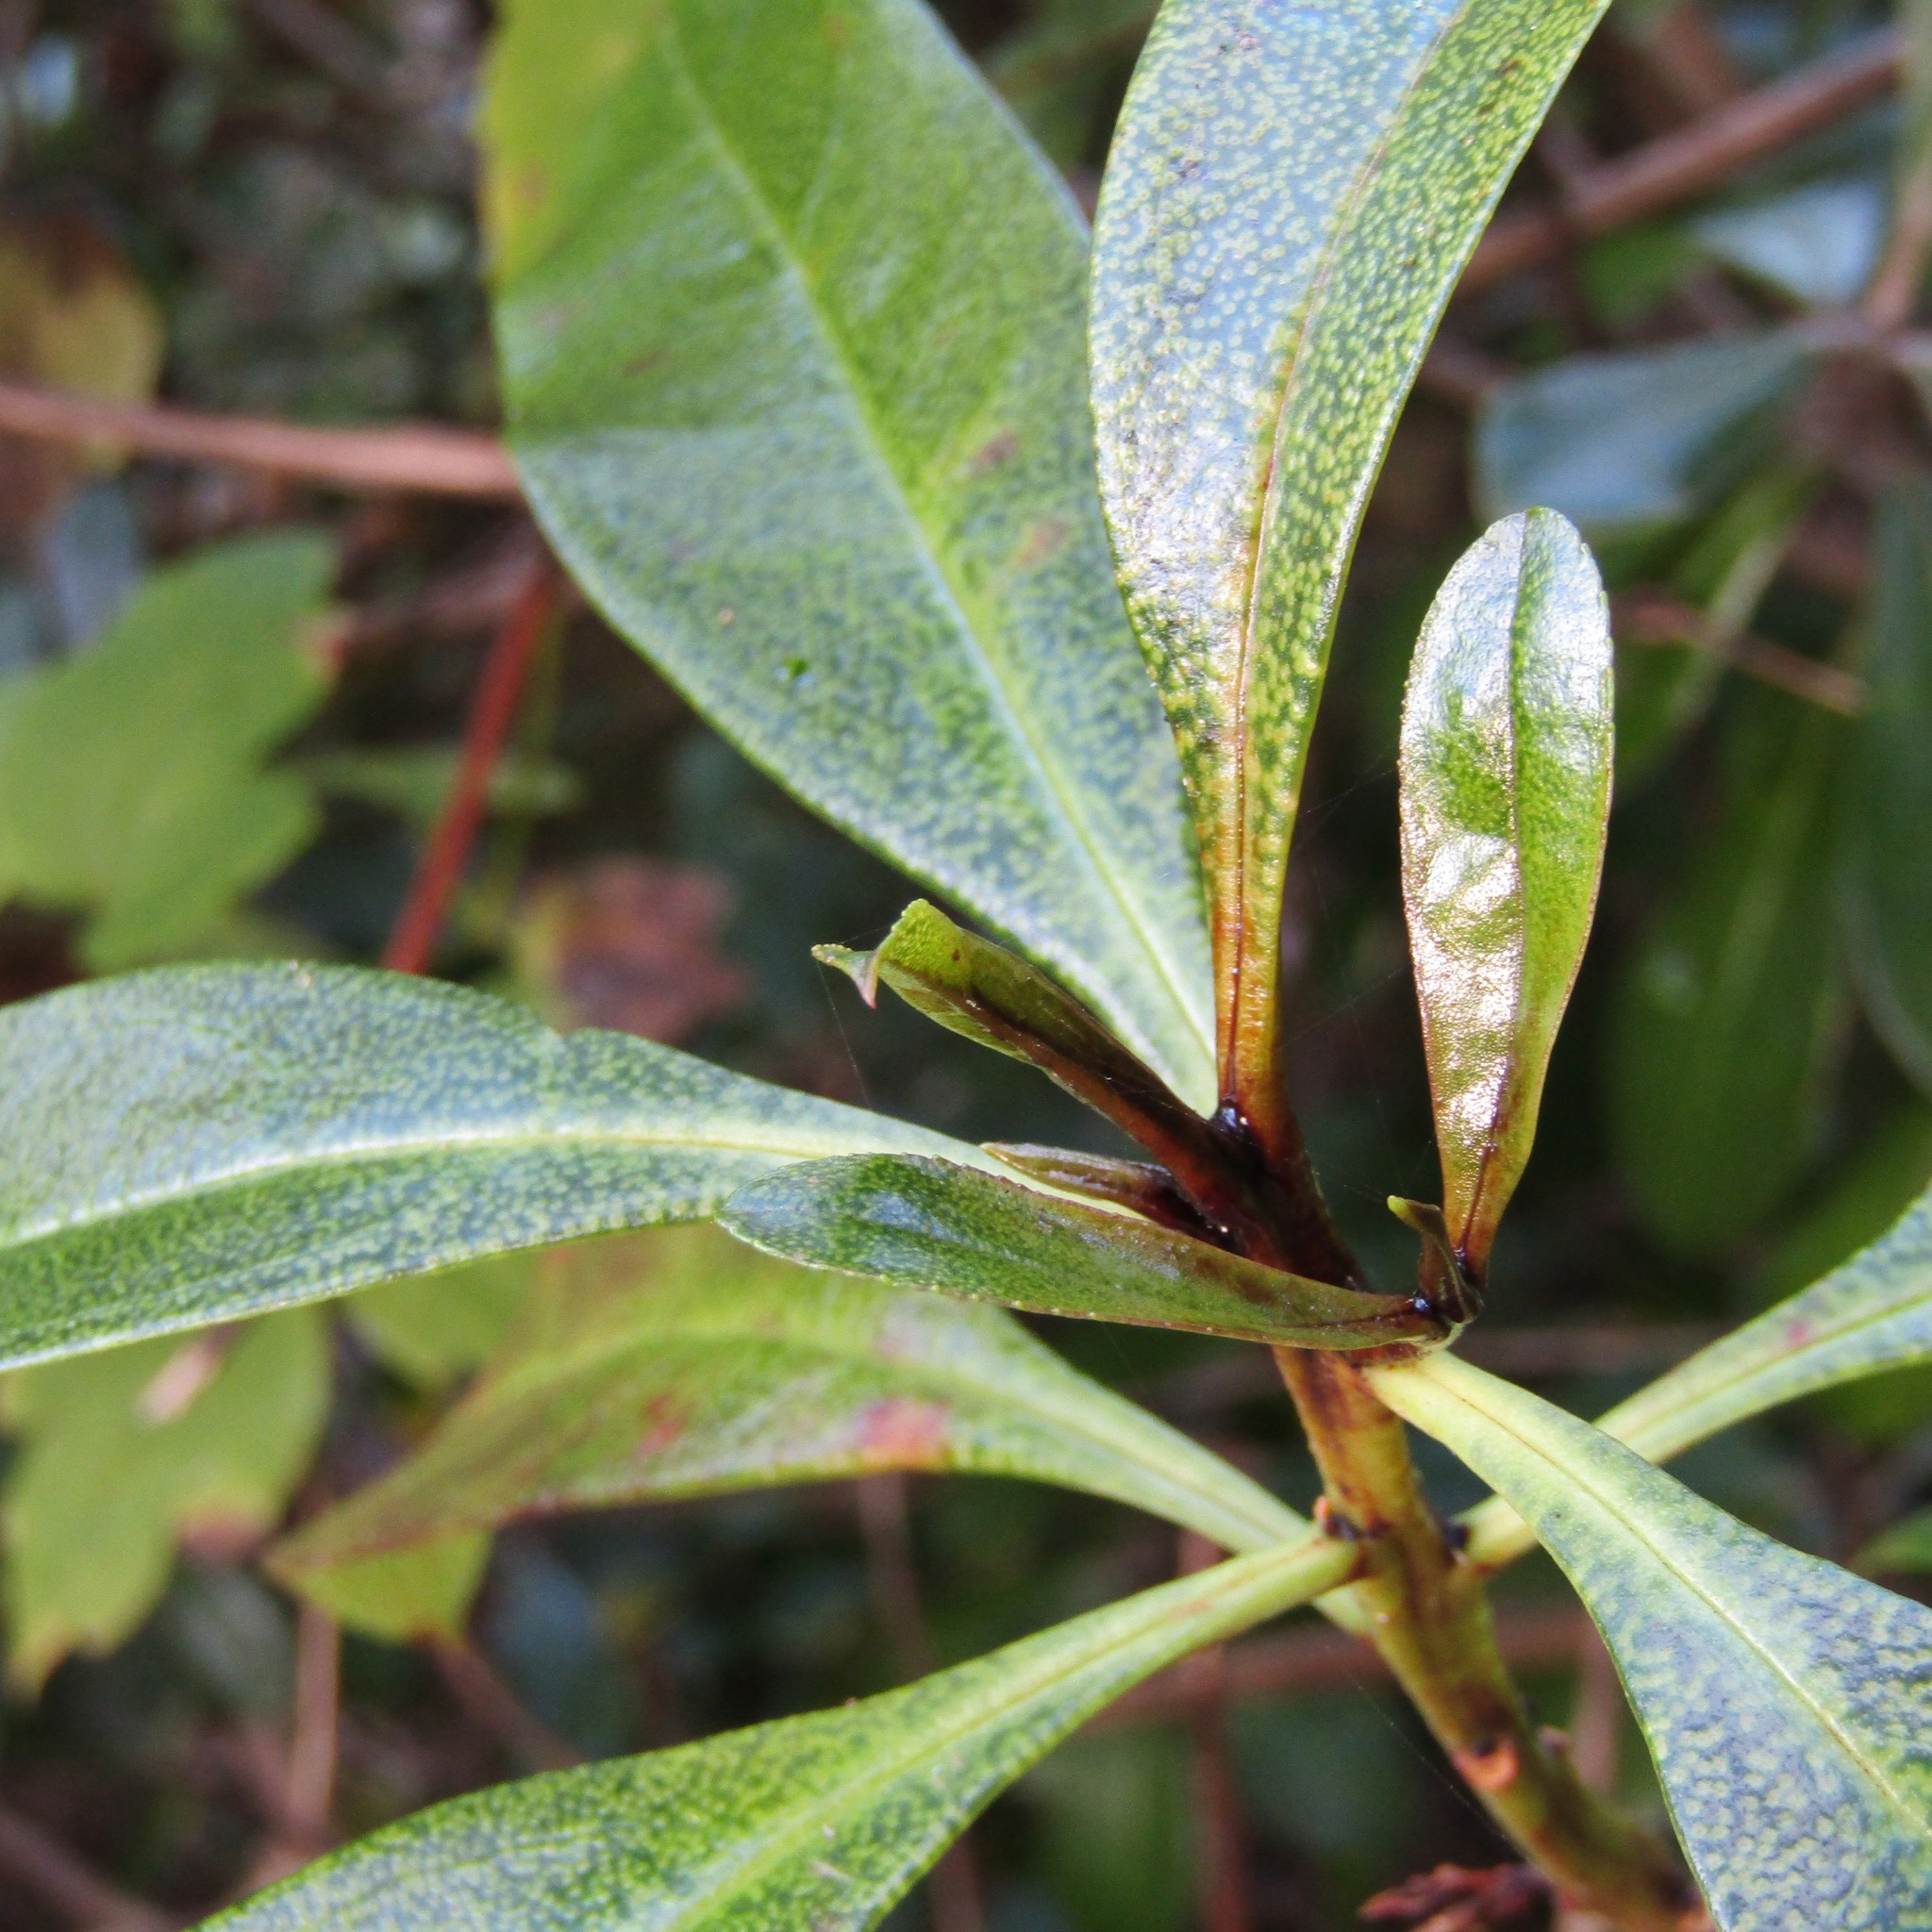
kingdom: Plantae
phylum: Tracheophyta
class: Magnoliopsida
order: Lamiales
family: Scrophulariaceae
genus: Myoporum
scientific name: Myoporum laetum
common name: Ngaio tree
